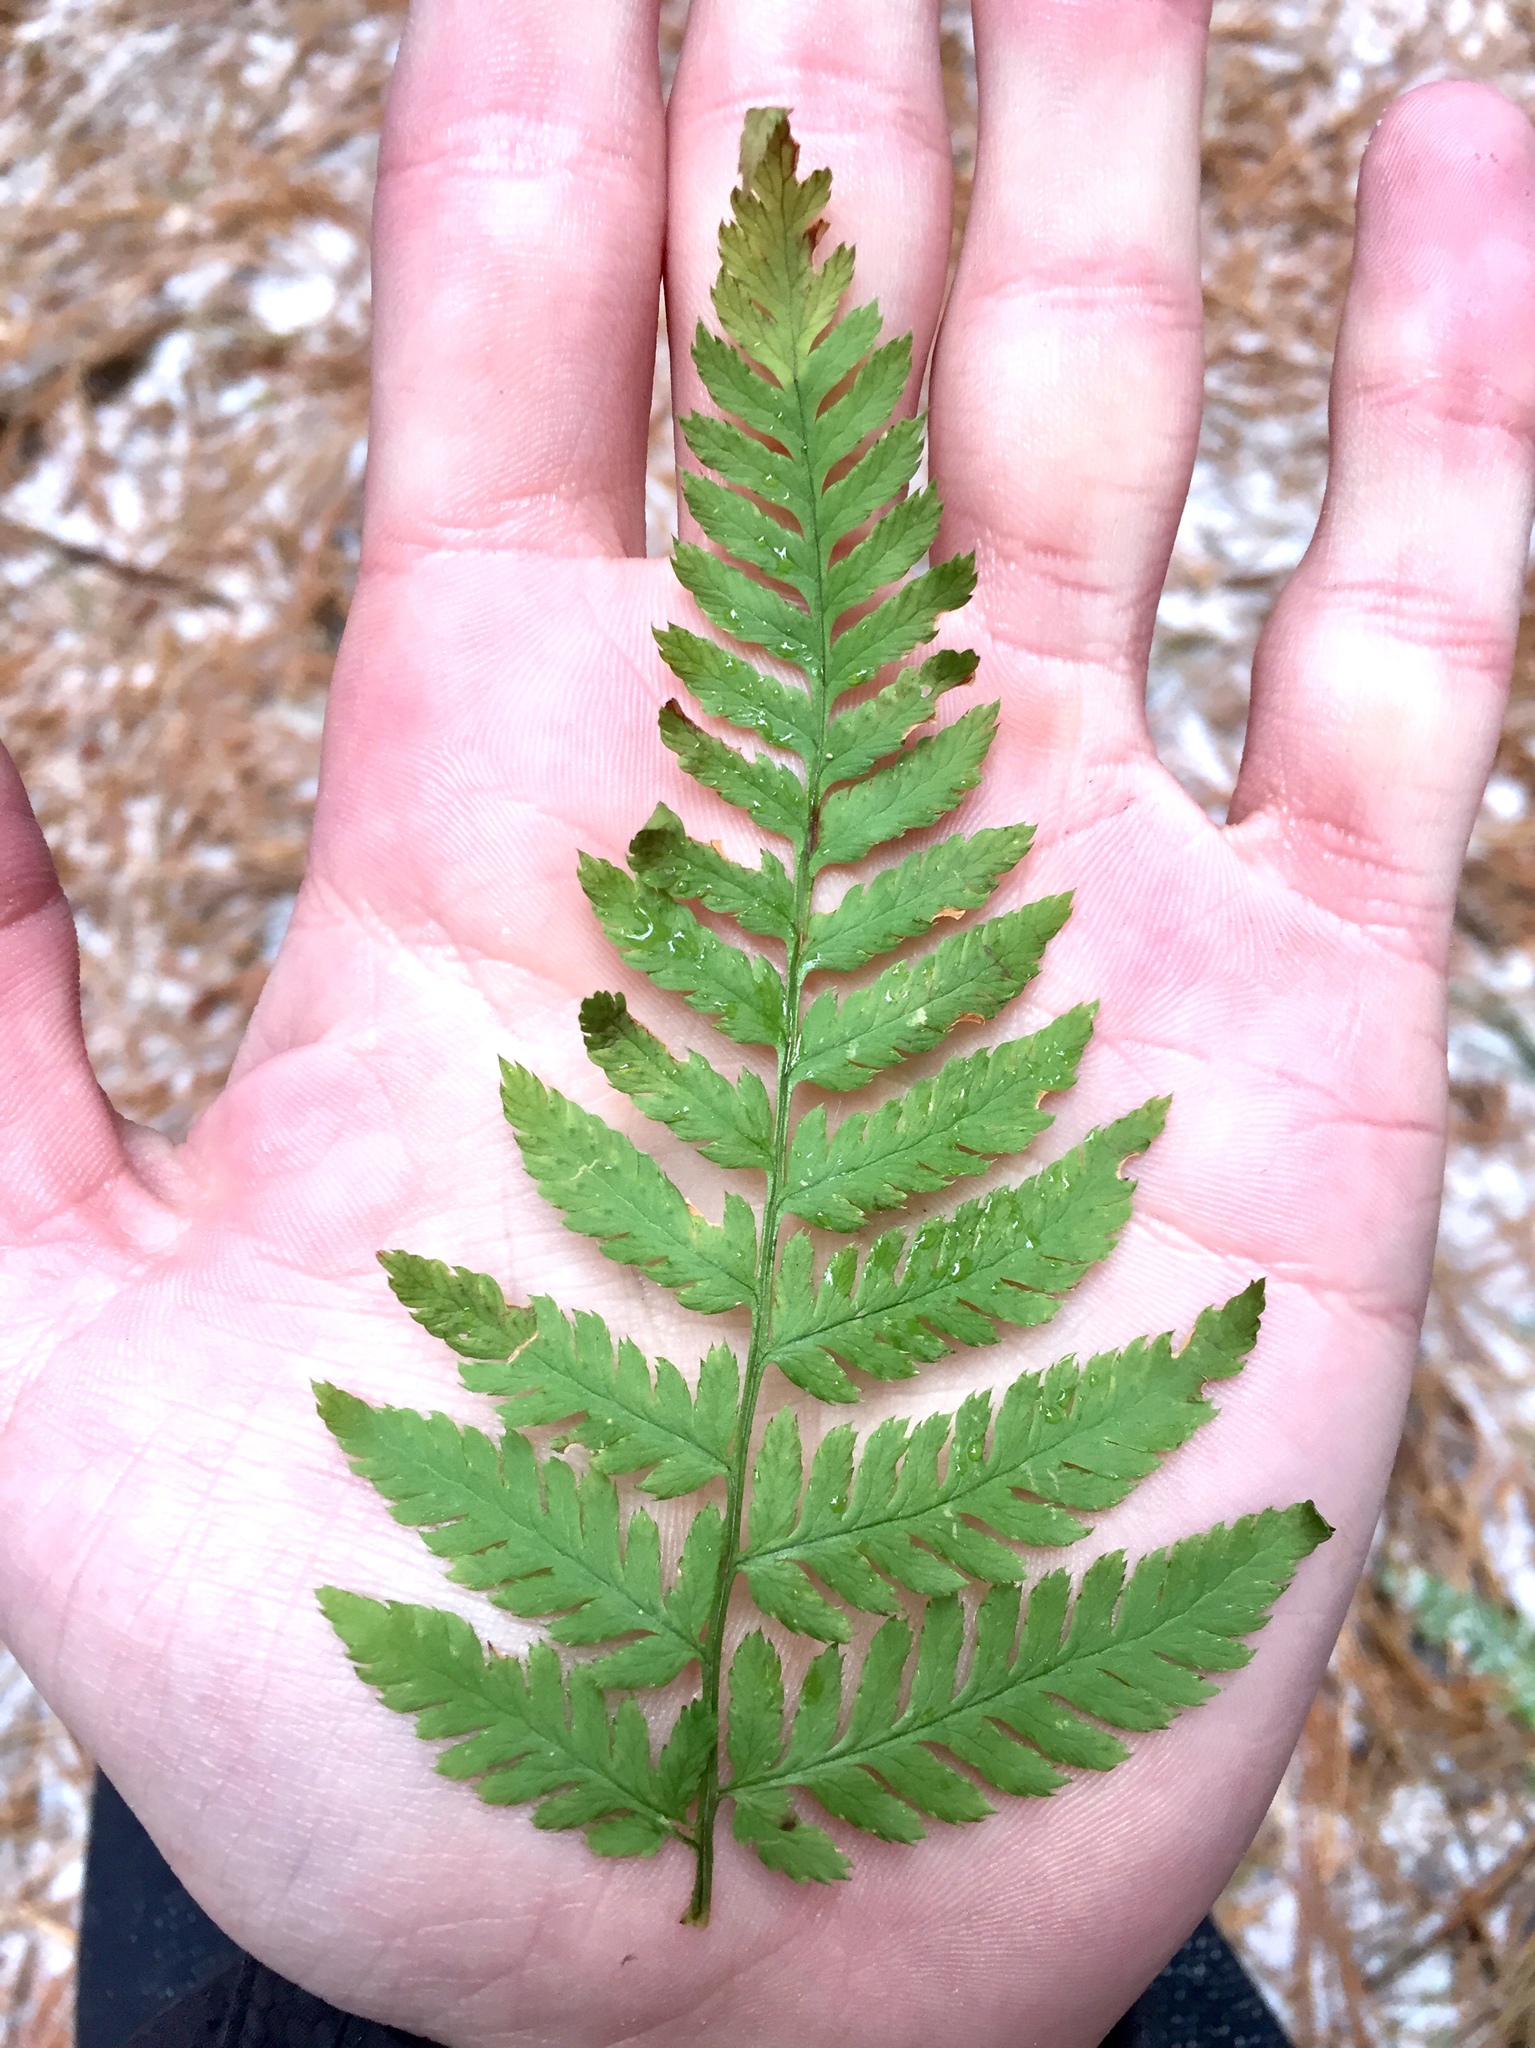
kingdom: Plantae
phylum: Tracheophyta
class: Polypodiopsida
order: Polypodiales
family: Dryopteridaceae
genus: Dryopteris
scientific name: Dryopteris intermedia
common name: Evergreen wood fern
